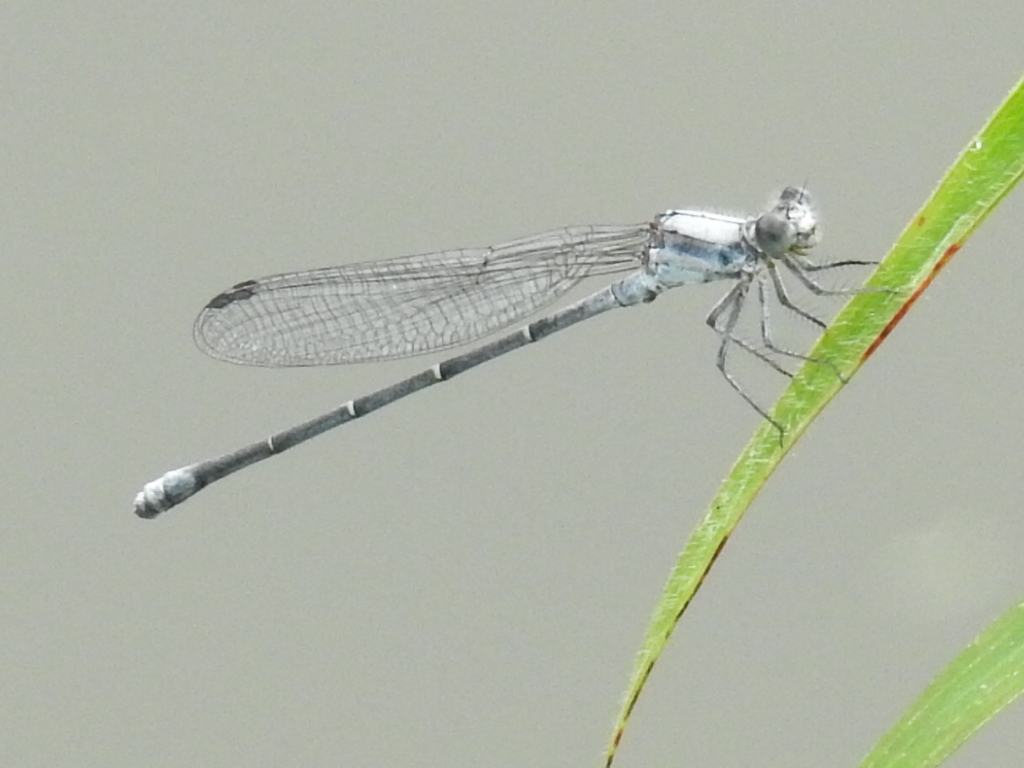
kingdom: Animalia
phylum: Arthropoda
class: Insecta
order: Odonata
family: Coenagrionidae
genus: Argia
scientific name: Argia moesta
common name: Powdered dancer
